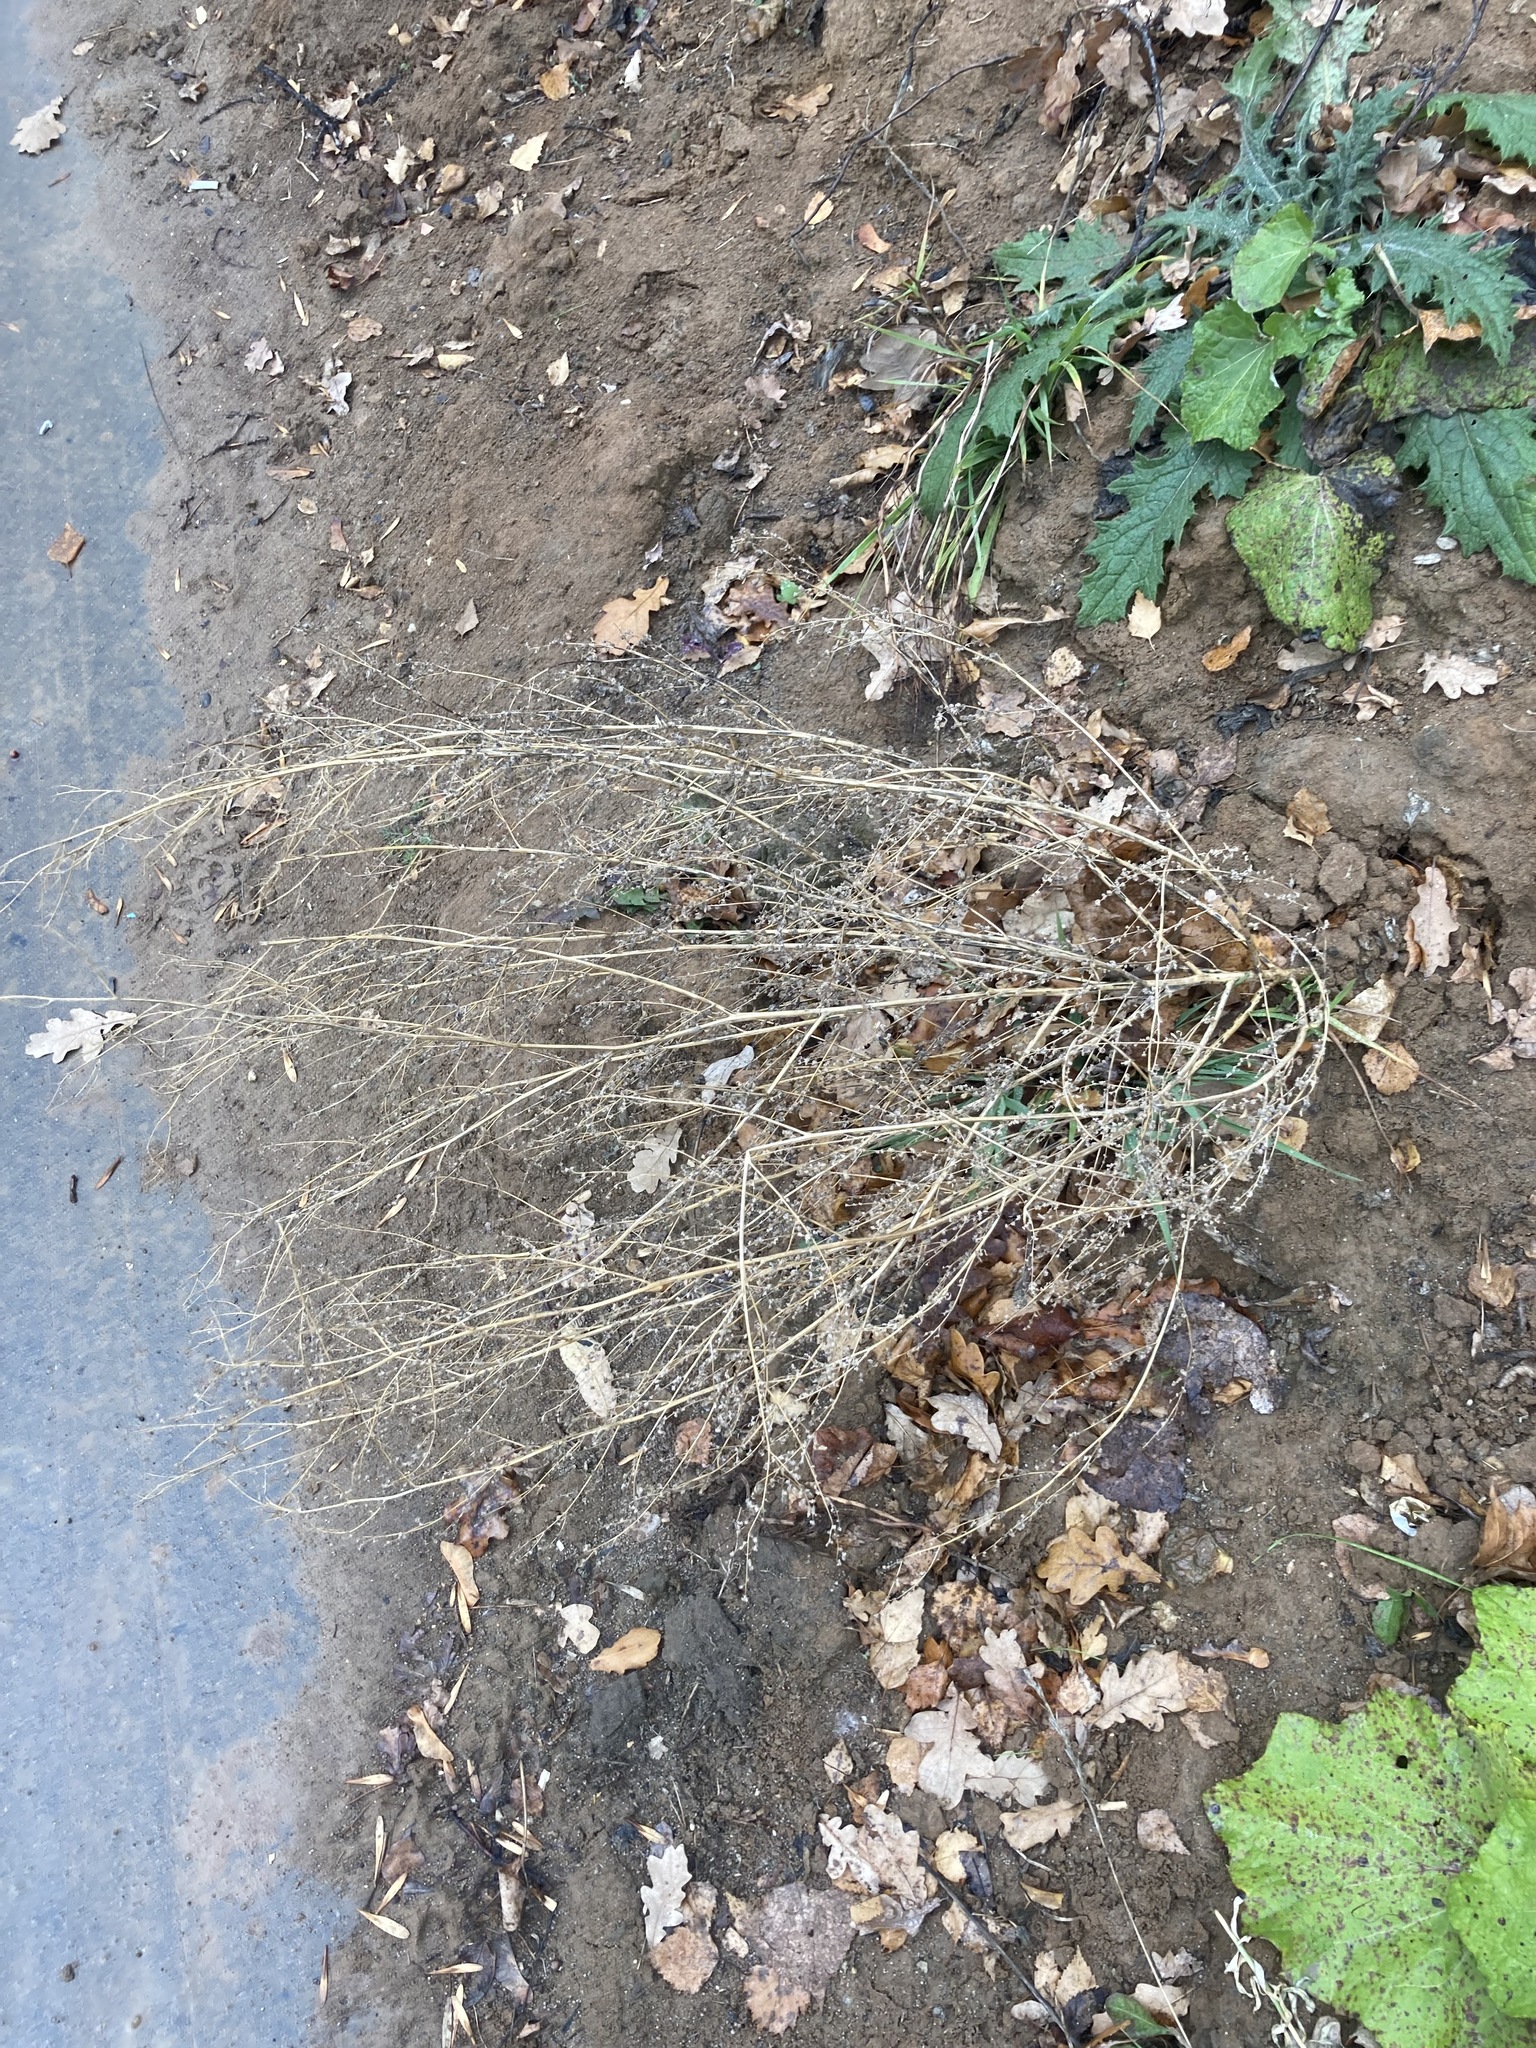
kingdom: Plantae
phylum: Tracheophyta
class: Magnoliopsida
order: Caryophyllales
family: Amaranthaceae
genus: Chenopodium
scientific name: Chenopodium album
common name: Fat-hen
